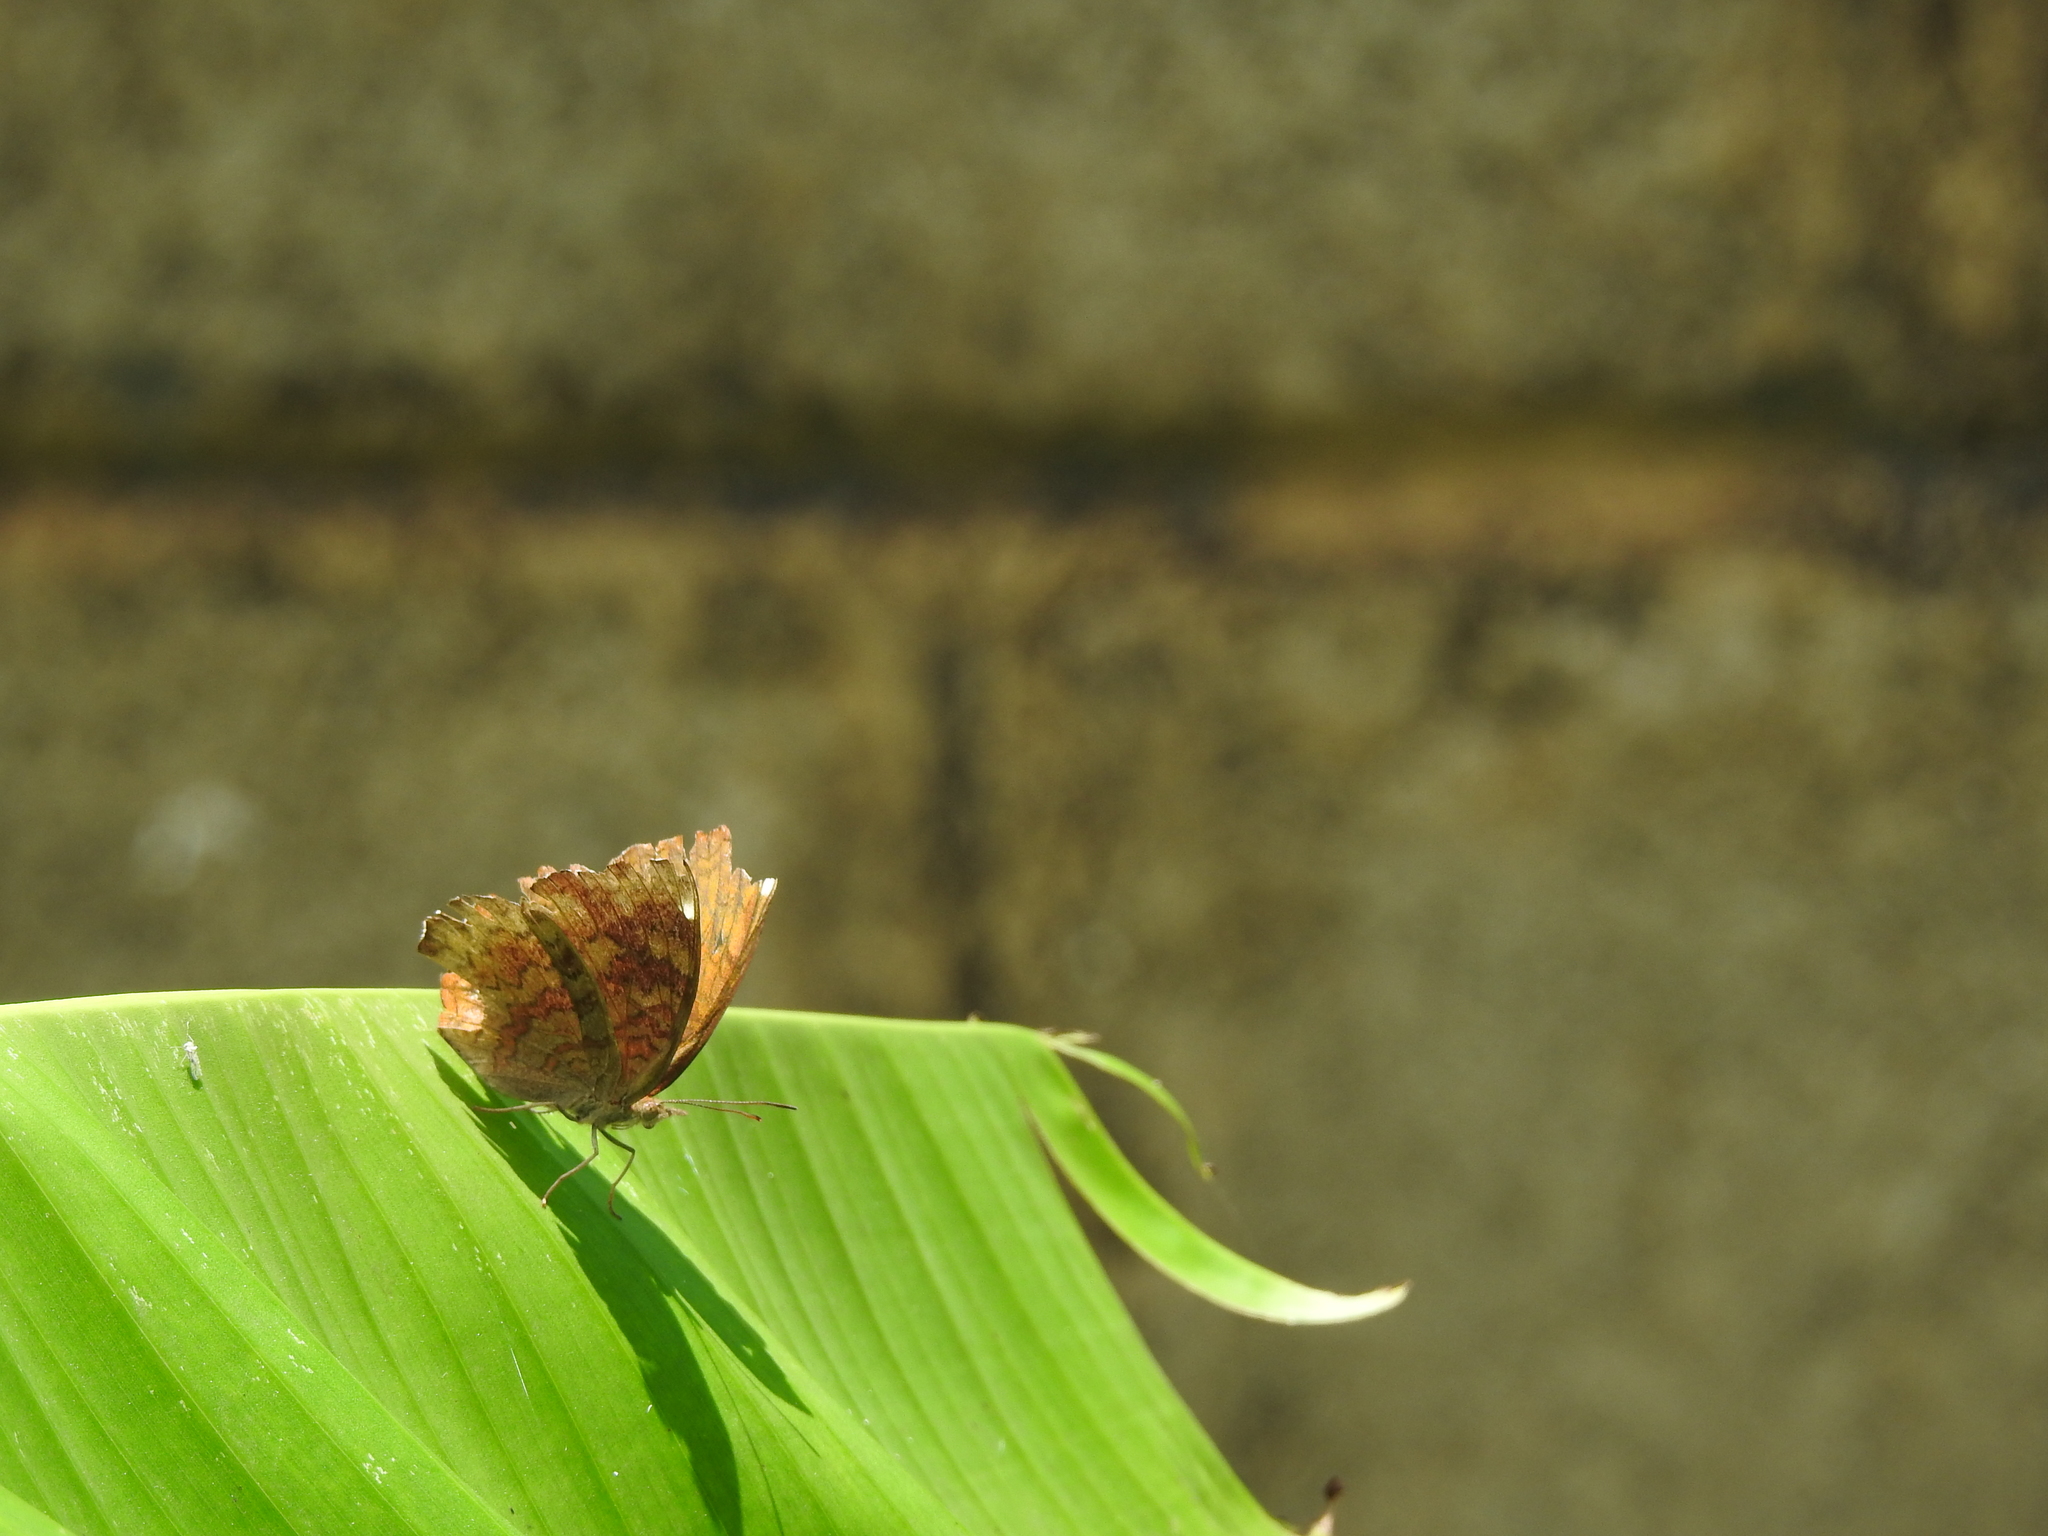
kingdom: Animalia
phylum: Arthropoda
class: Insecta
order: Lepidoptera
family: Nymphalidae
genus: Ariadne
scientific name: Ariadne merione
